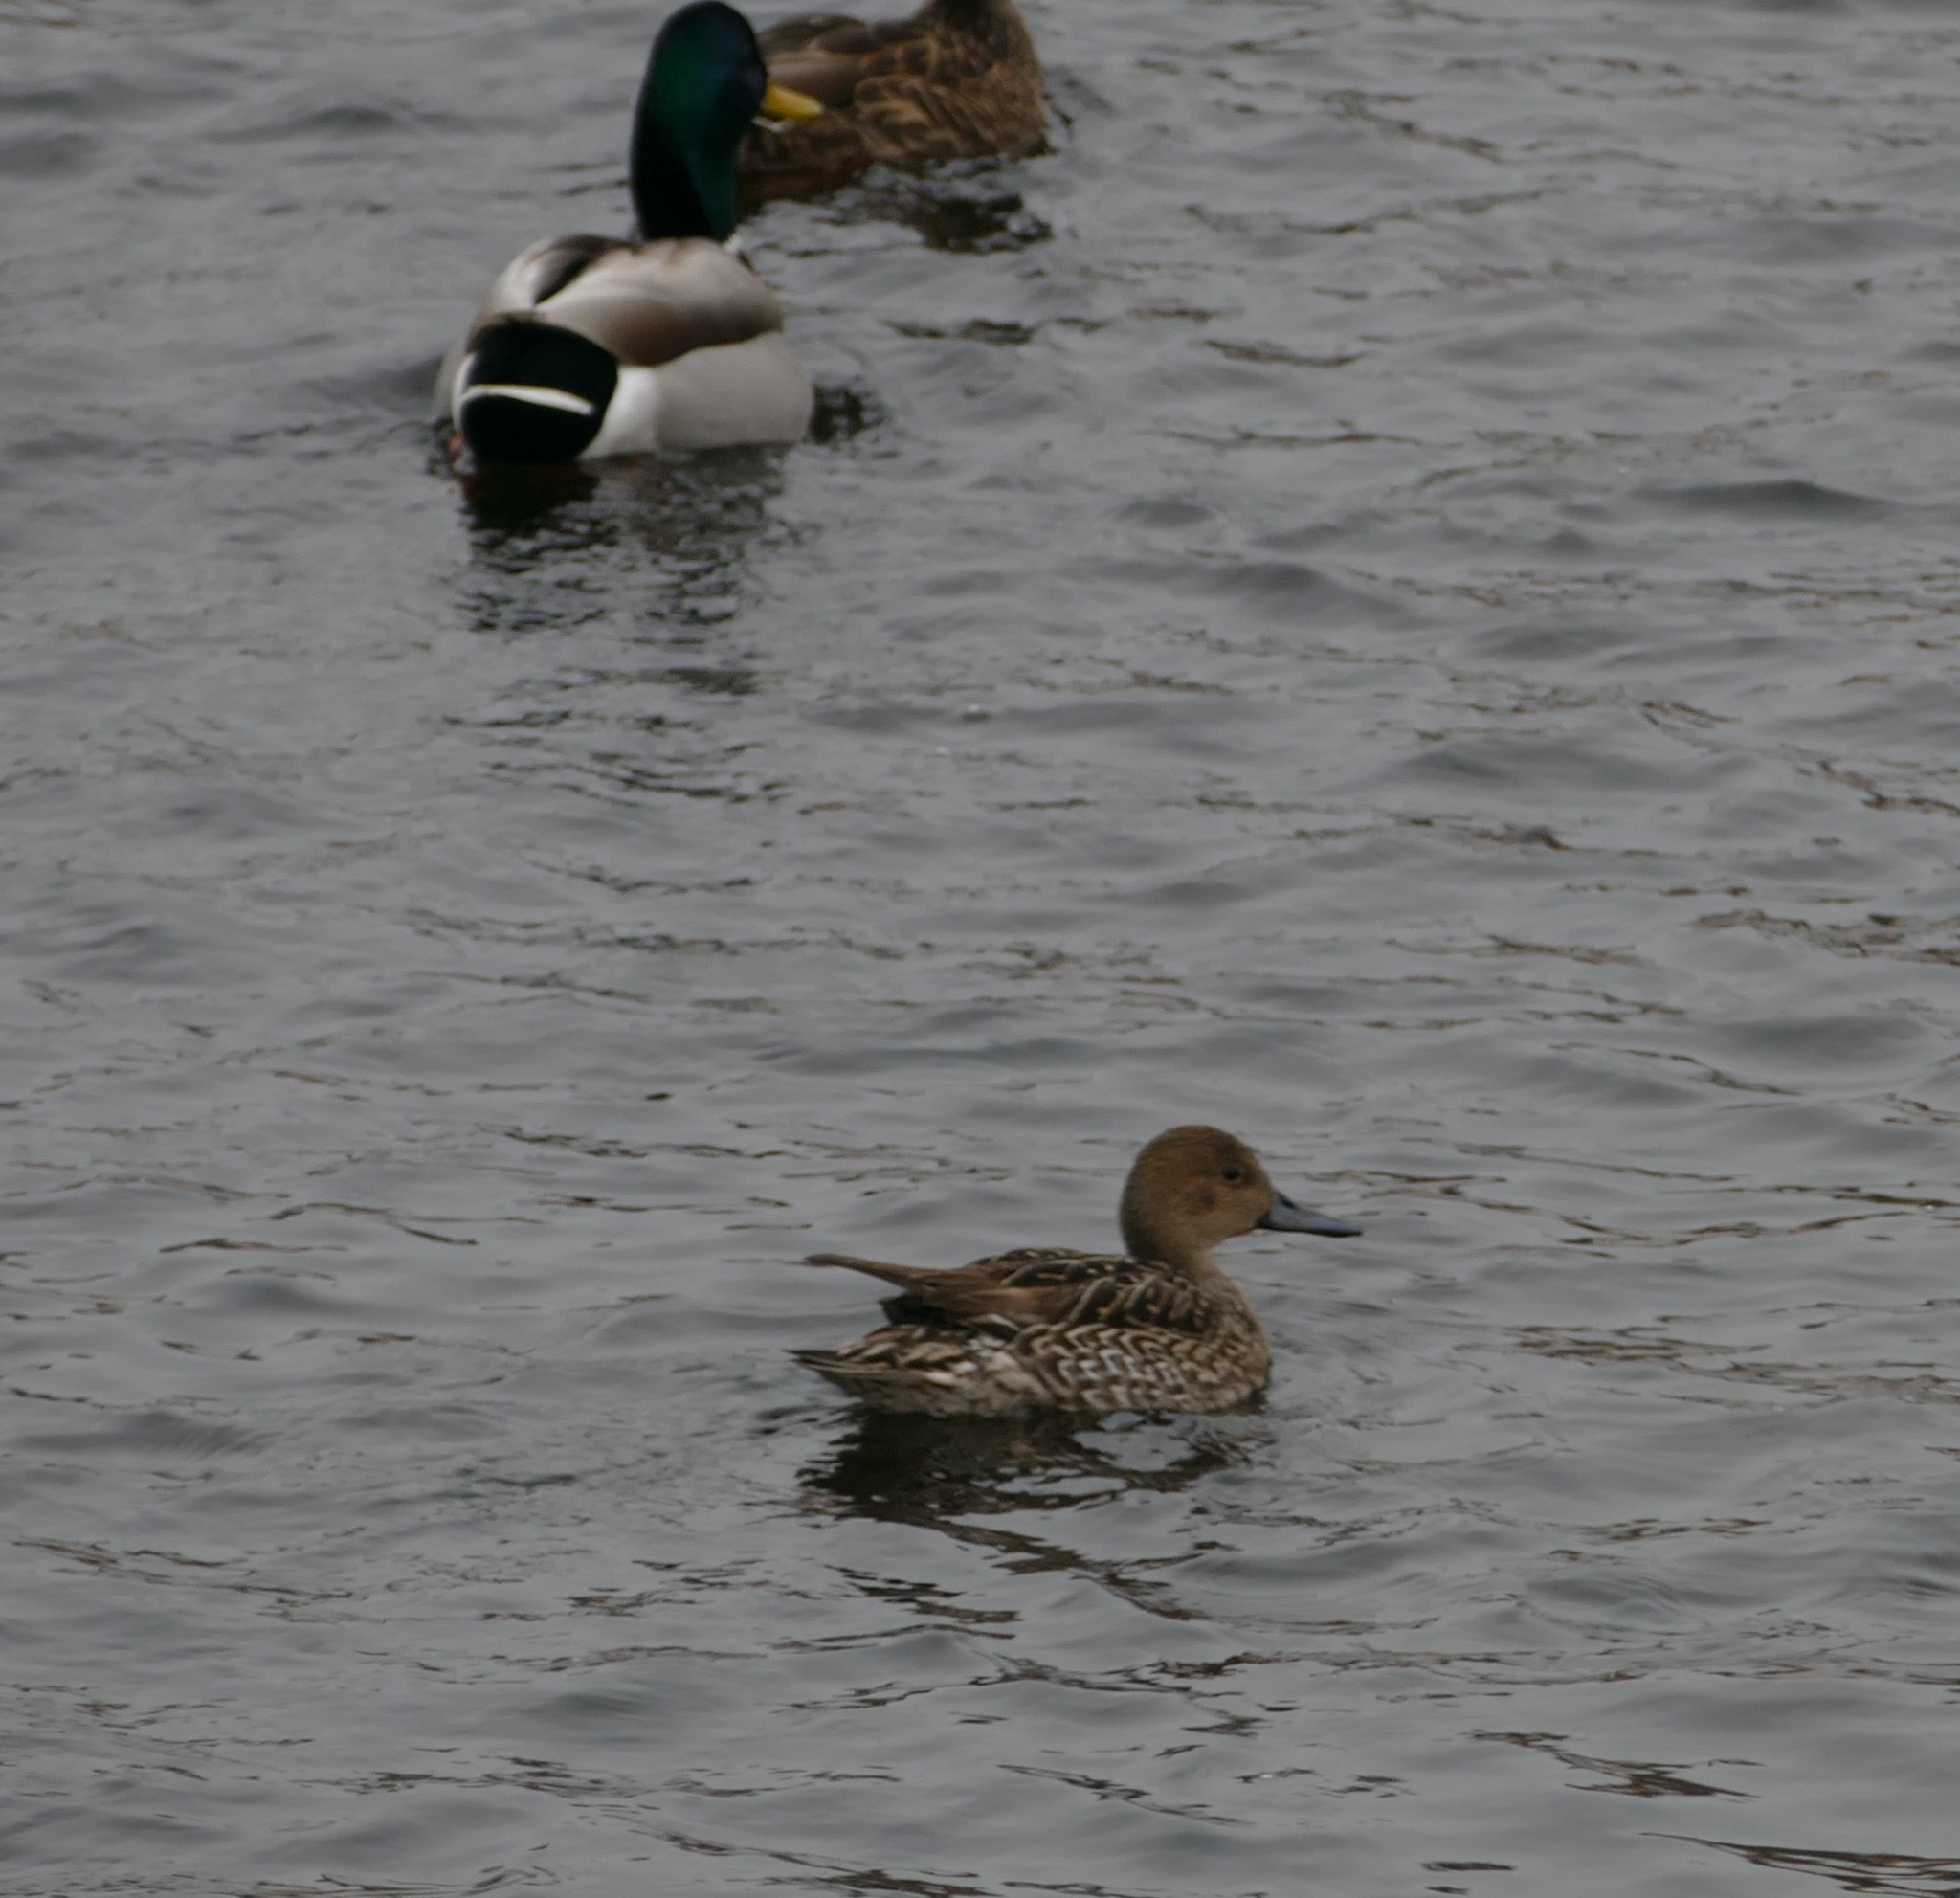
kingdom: Animalia
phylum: Chordata
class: Aves
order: Anseriformes
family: Anatidae
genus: Anas
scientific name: Anas acuta
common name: Northern pintail
